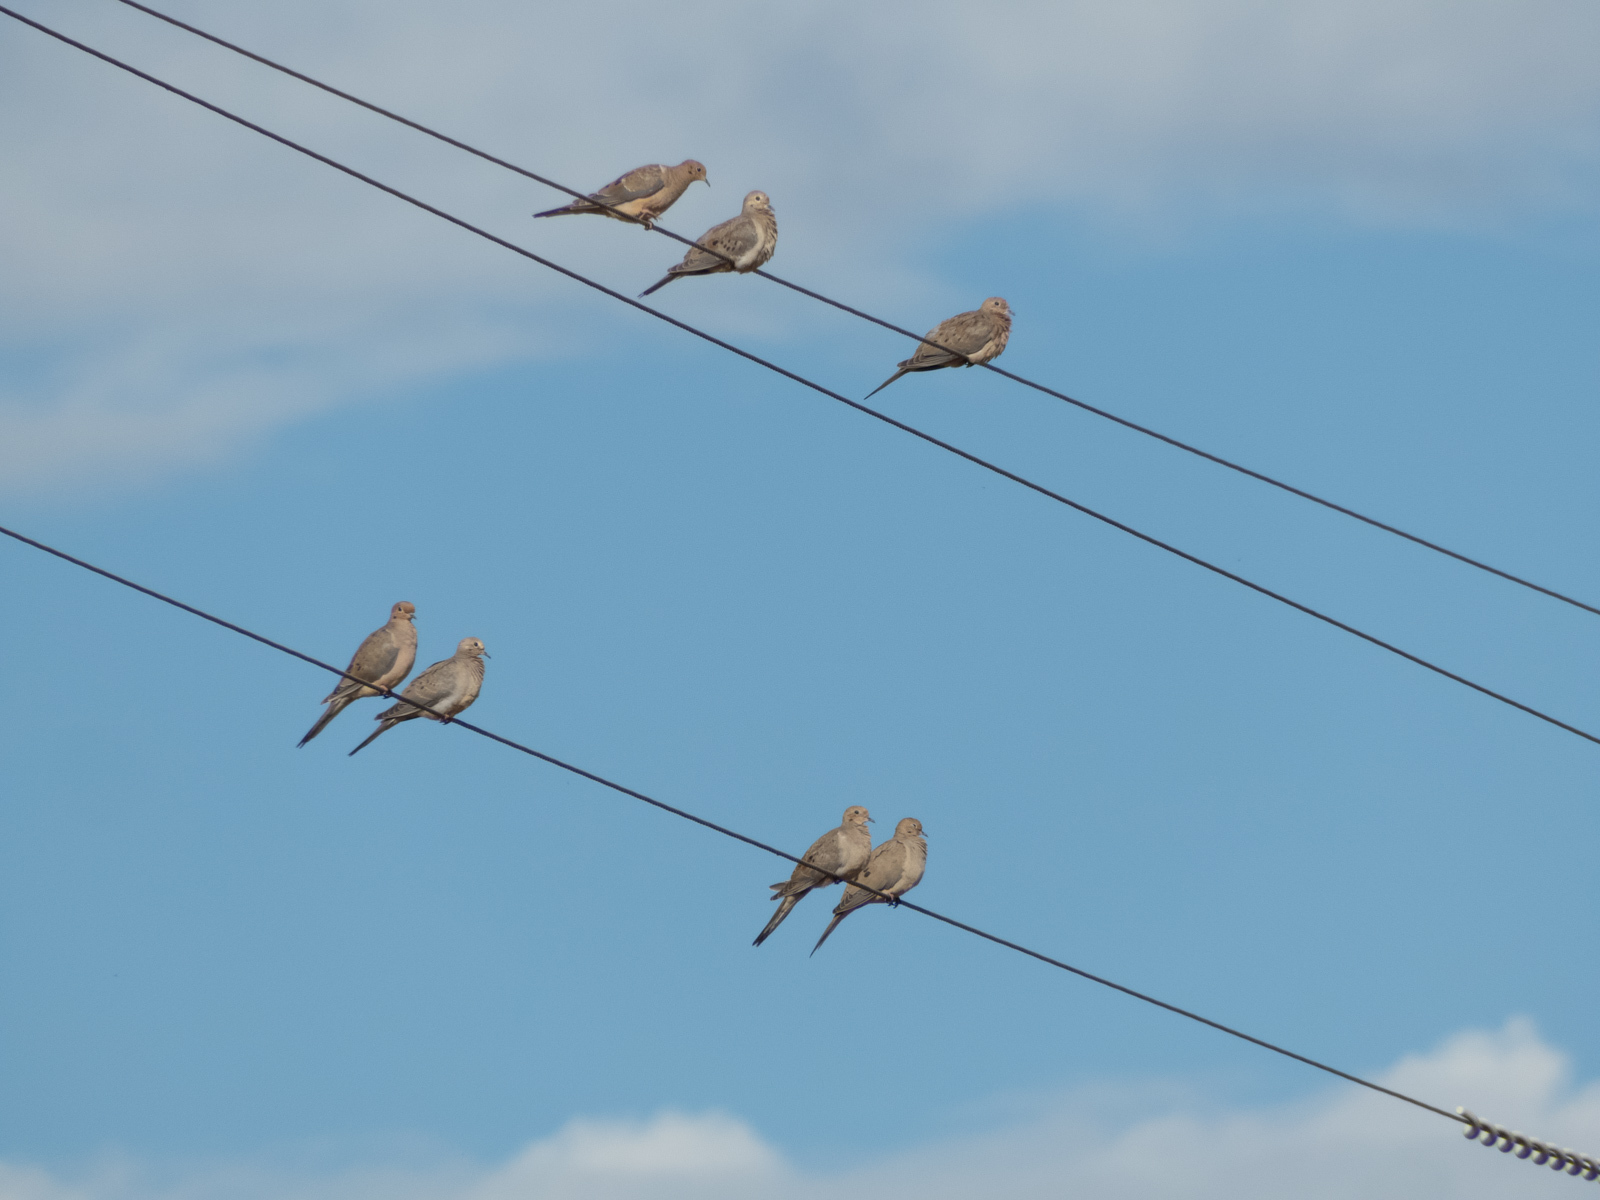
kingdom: Animalia
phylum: Chordata
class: Aves
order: Columbiformes
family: Columbidae
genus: Zenaida
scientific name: Zenaida macroura
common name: Mourning dove
